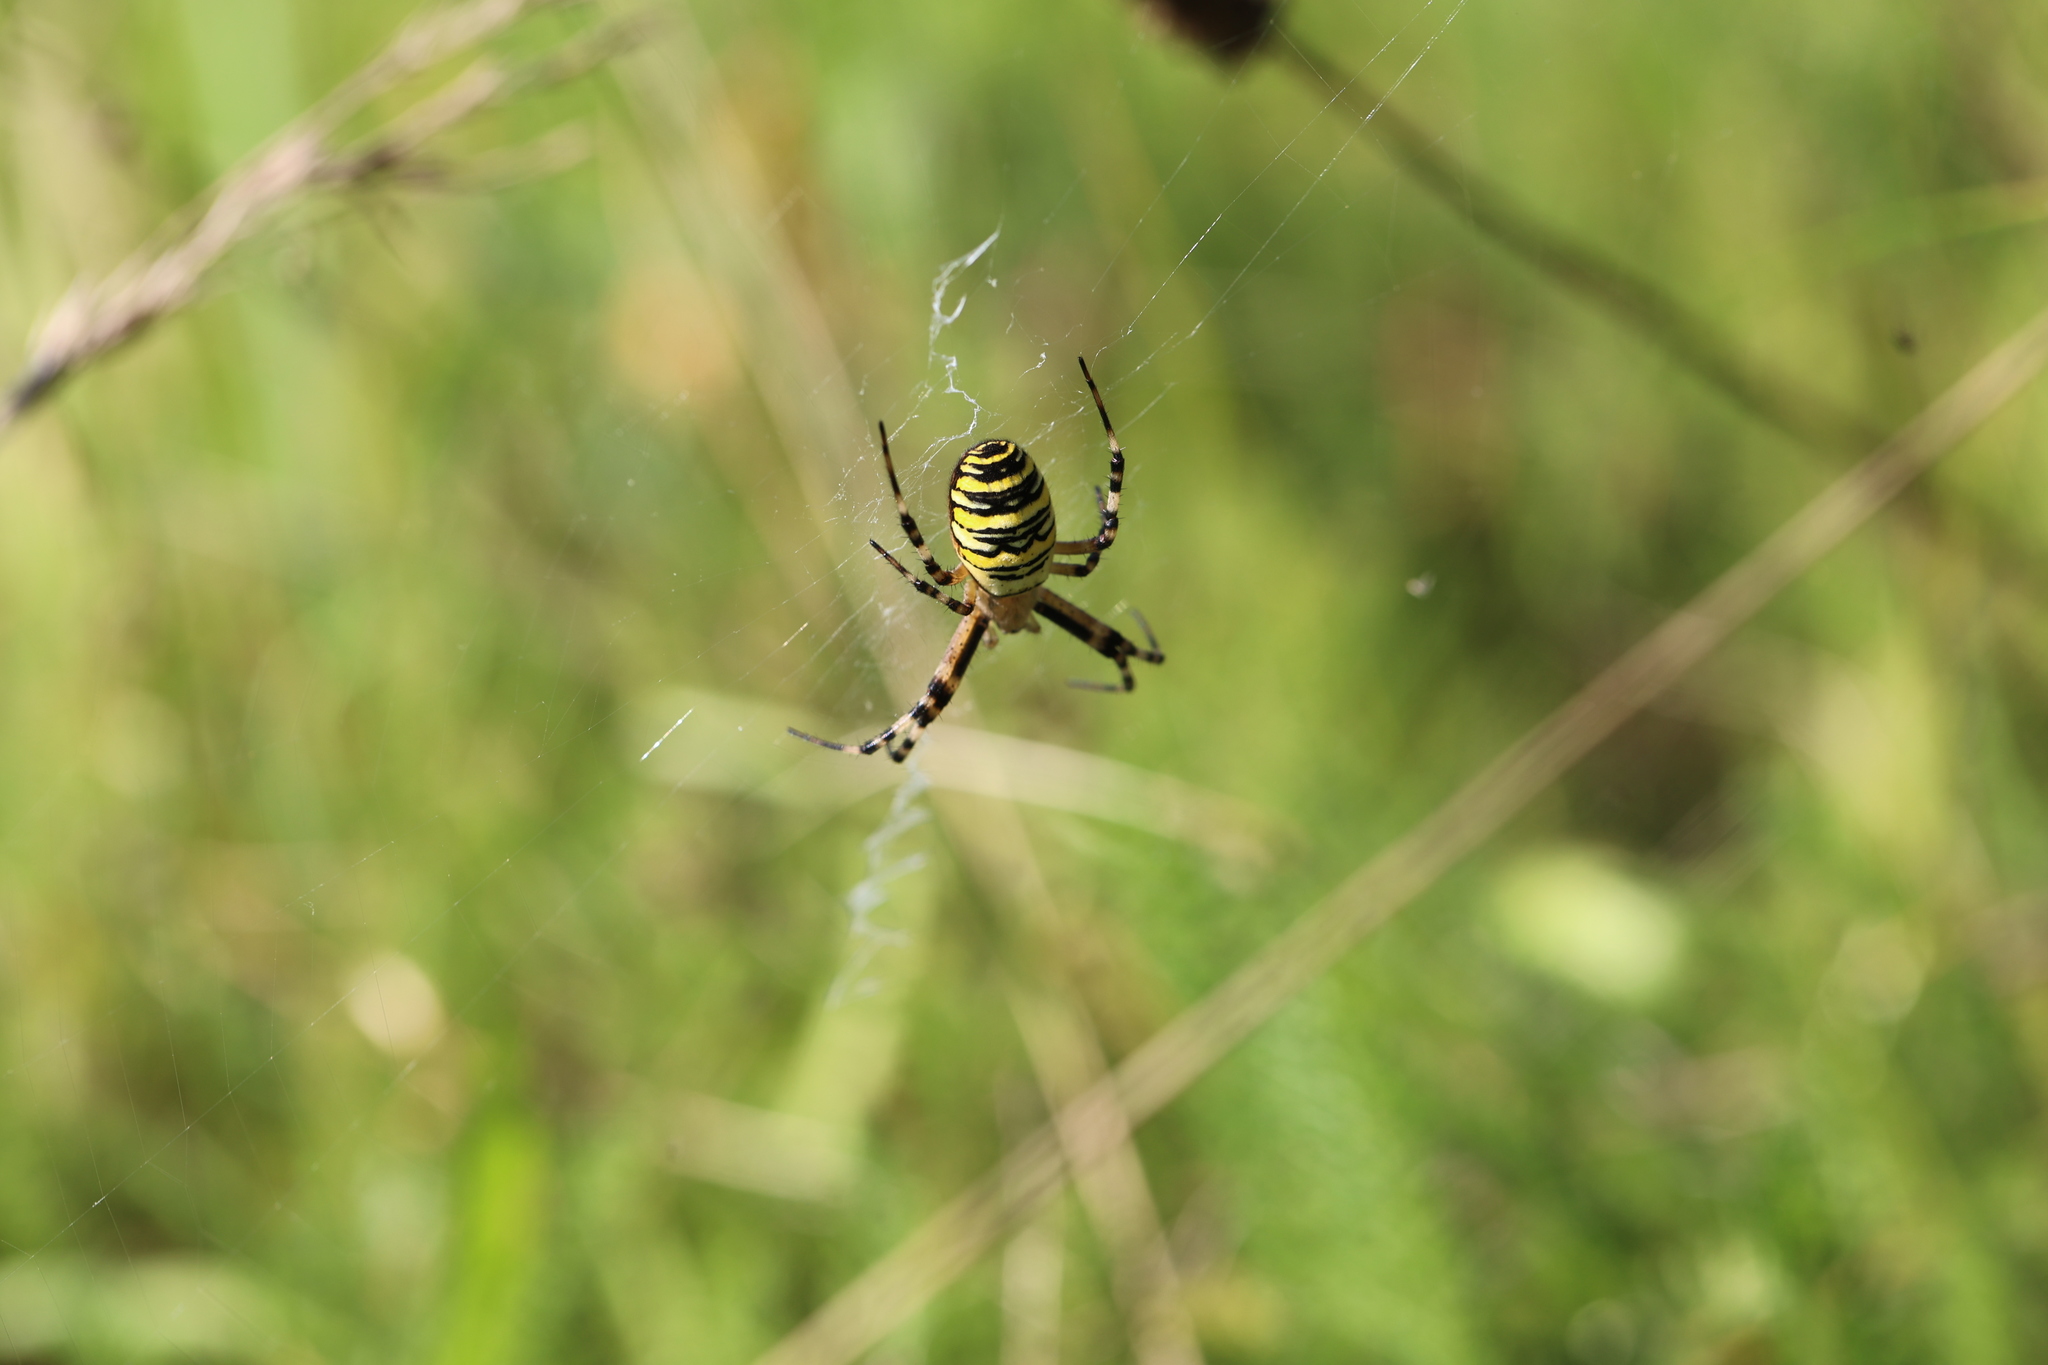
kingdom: Animalia
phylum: Arthropoda
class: Arachnida
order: Araneae
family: Araneidae
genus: Argiope
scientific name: Argiope bruennichi
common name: Wasp spider
